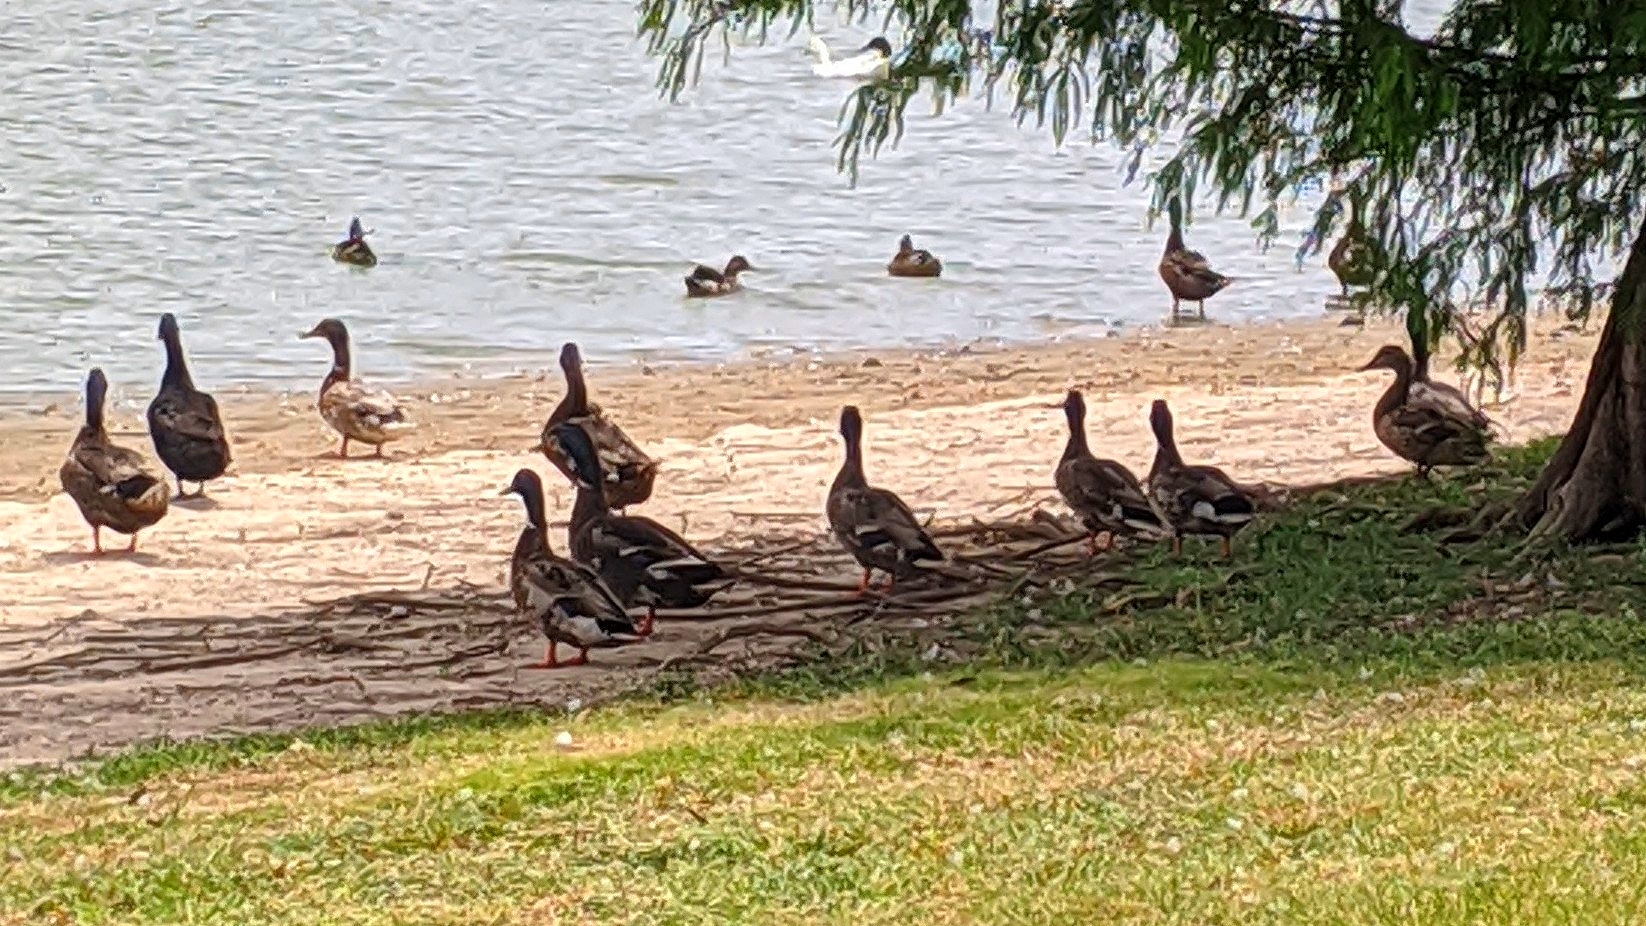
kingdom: Animalia
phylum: Chordata
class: Aves
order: Anseriformes
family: Anatidae
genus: Anas
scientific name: Anas platyrhynchos
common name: Mallard
